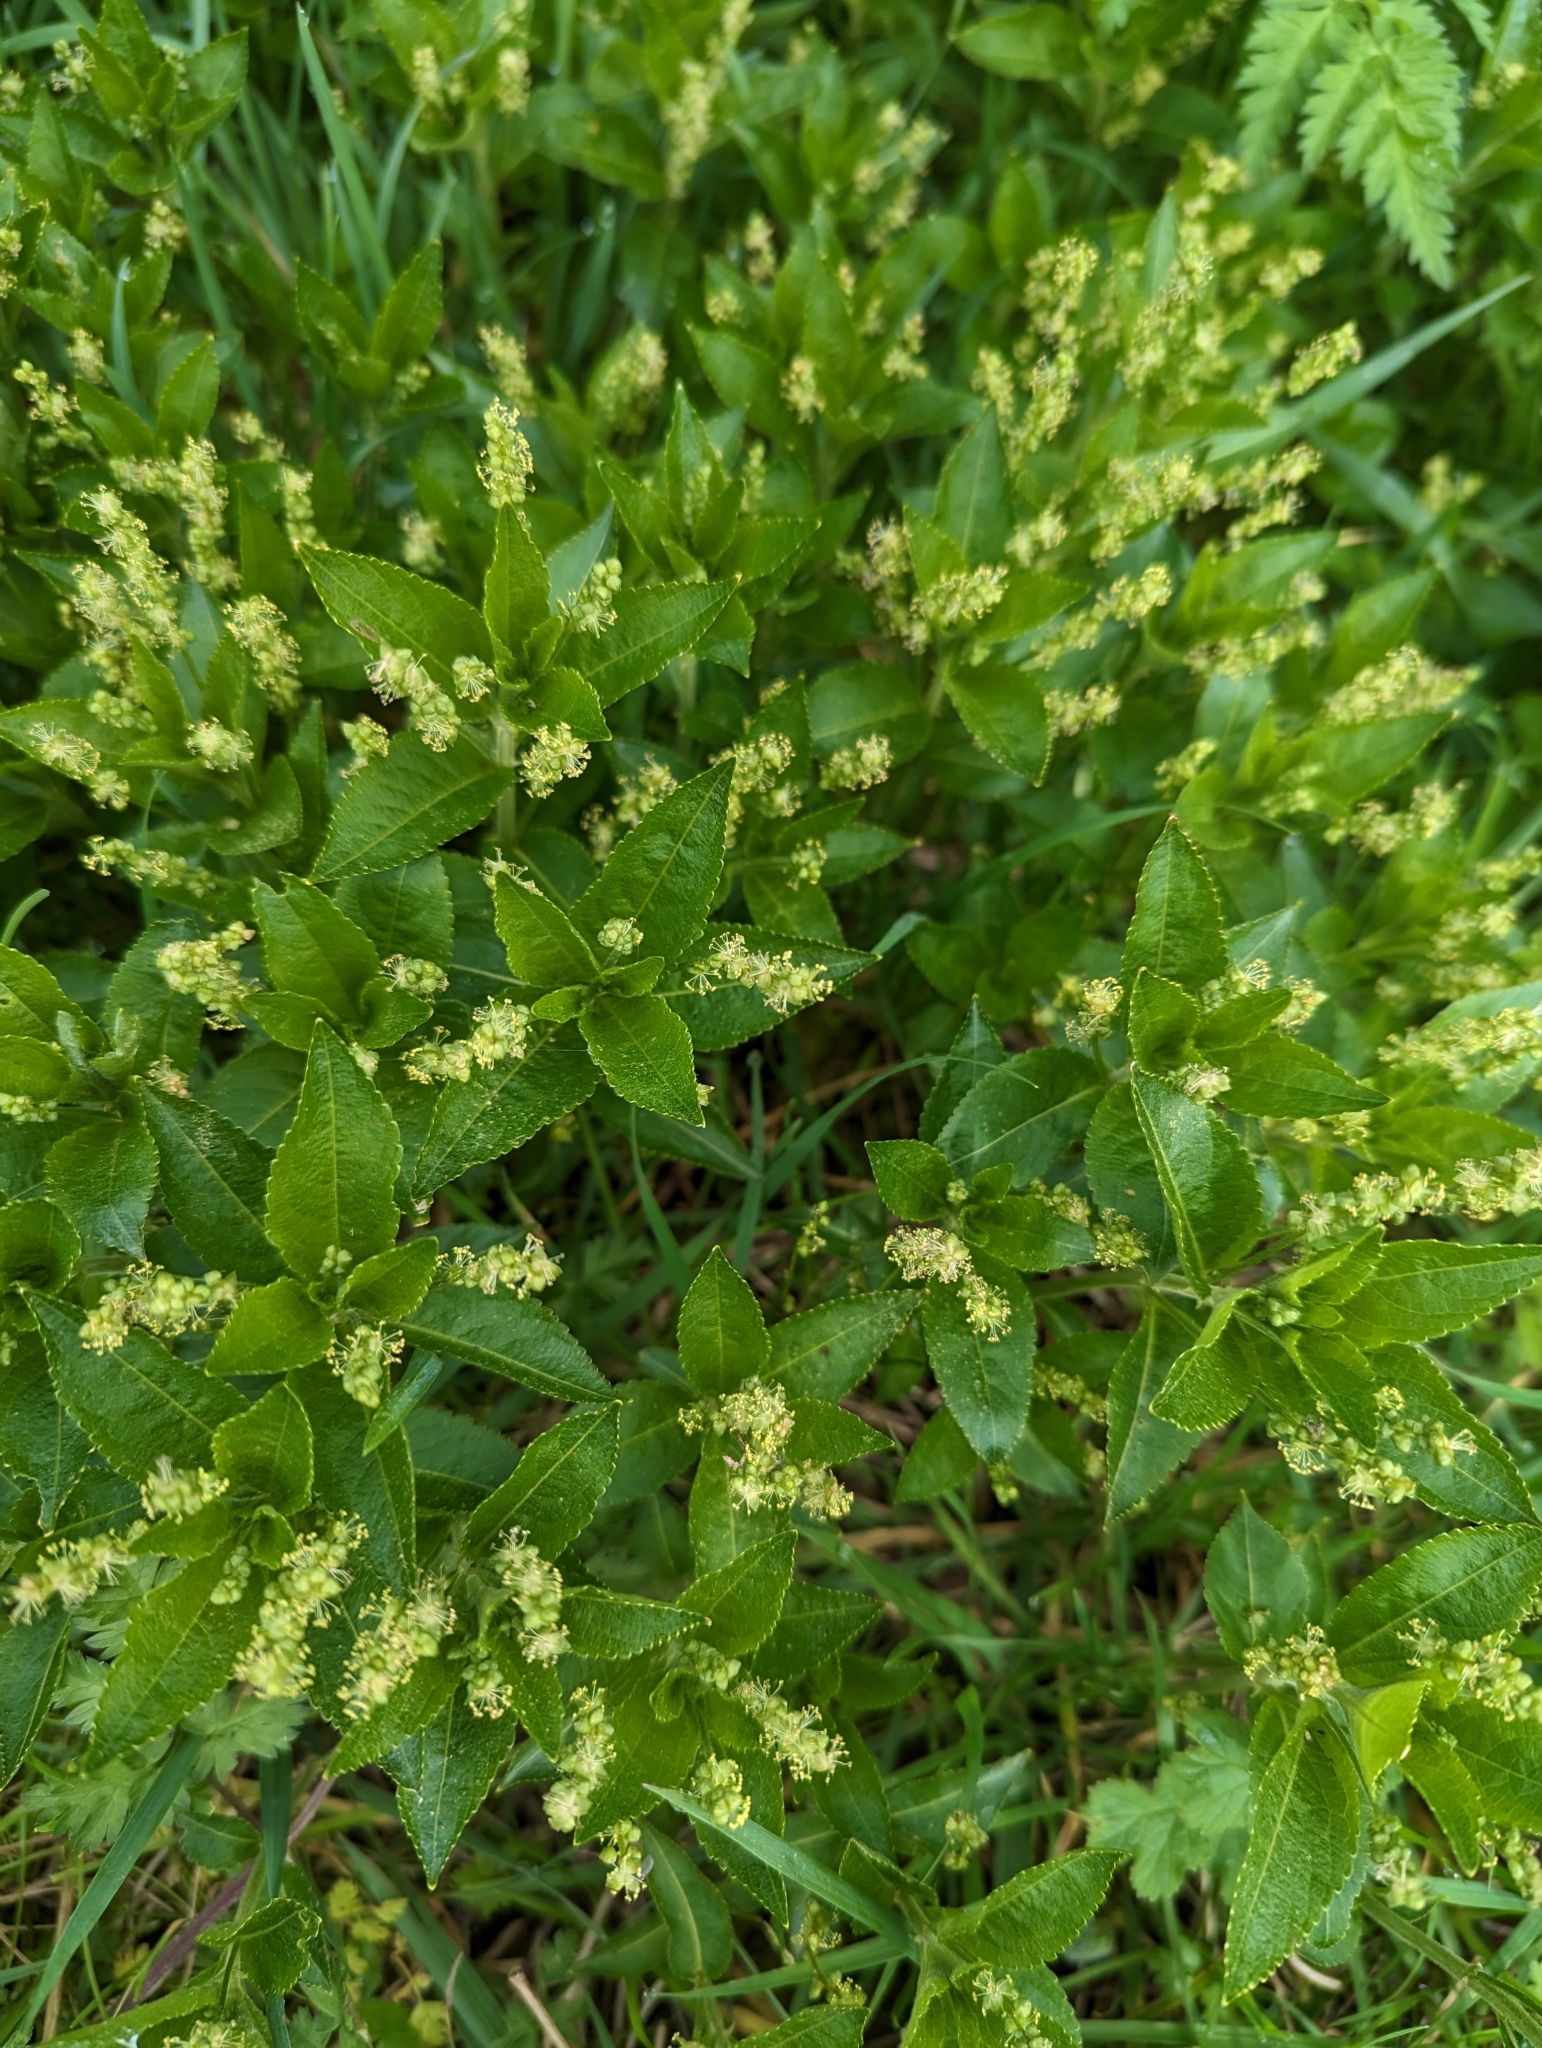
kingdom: Plantae
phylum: Tracheophyta
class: Magnoliopsida
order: Malpighiales
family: Euphorbiaceae
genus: Mercurialis
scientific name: Mercurialis perennis
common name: Dog mercury
